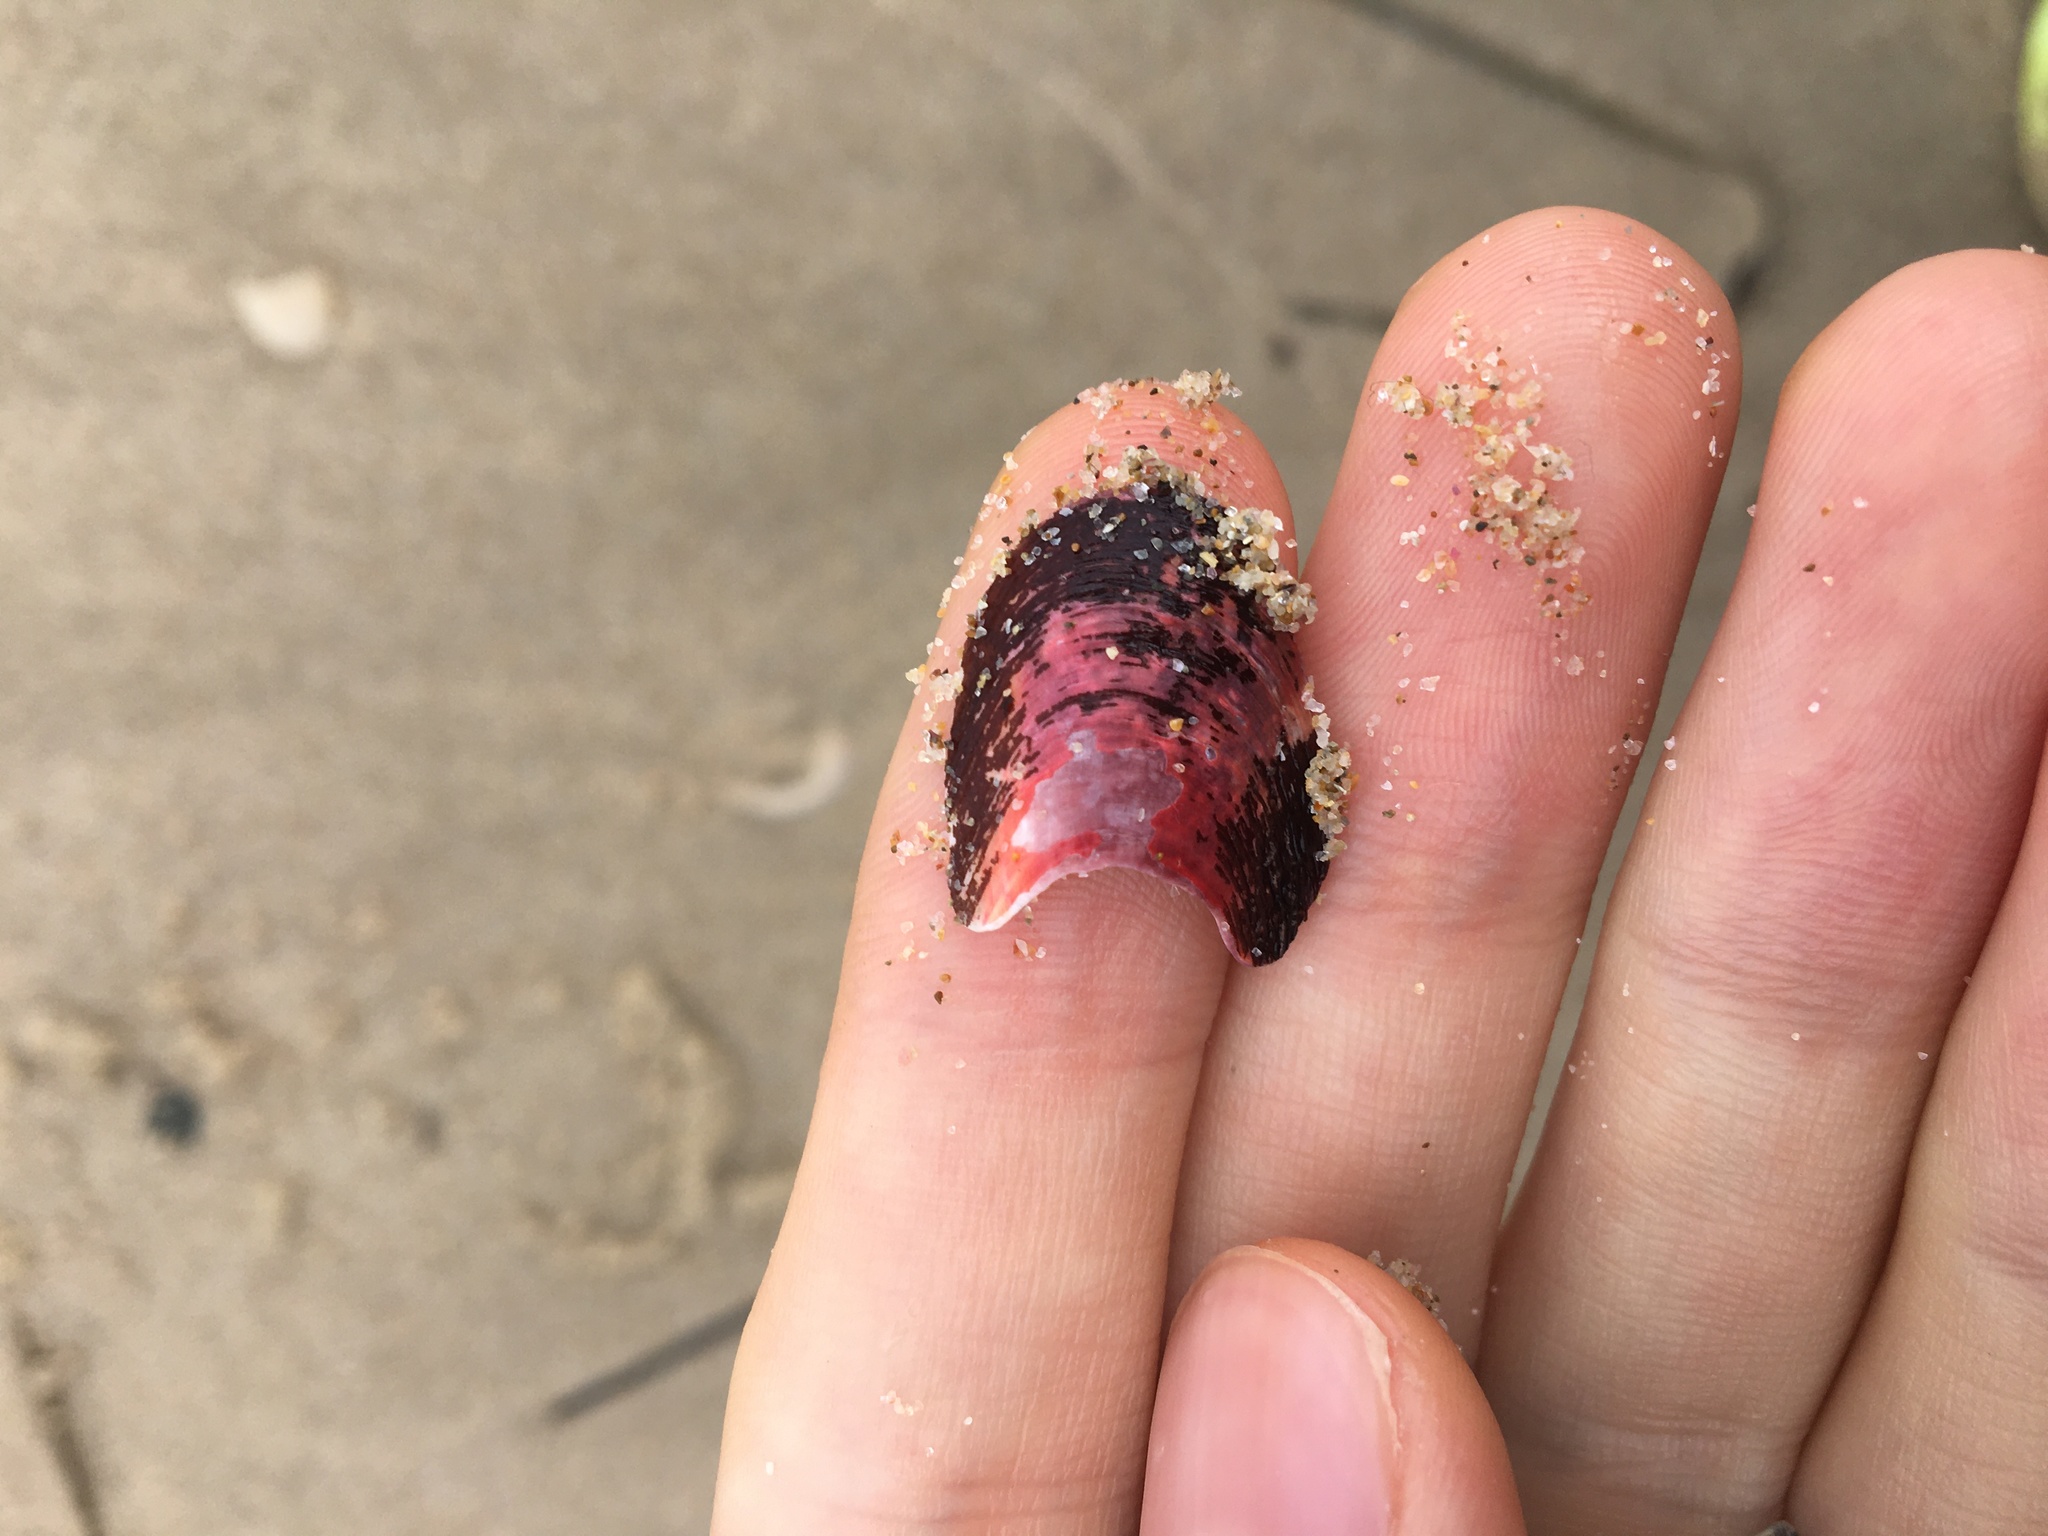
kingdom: Animalia
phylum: Mollusca
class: Bivalvia
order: Mytilida
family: Mytilidae
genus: Modiolus
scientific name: Modiolus areolatus
